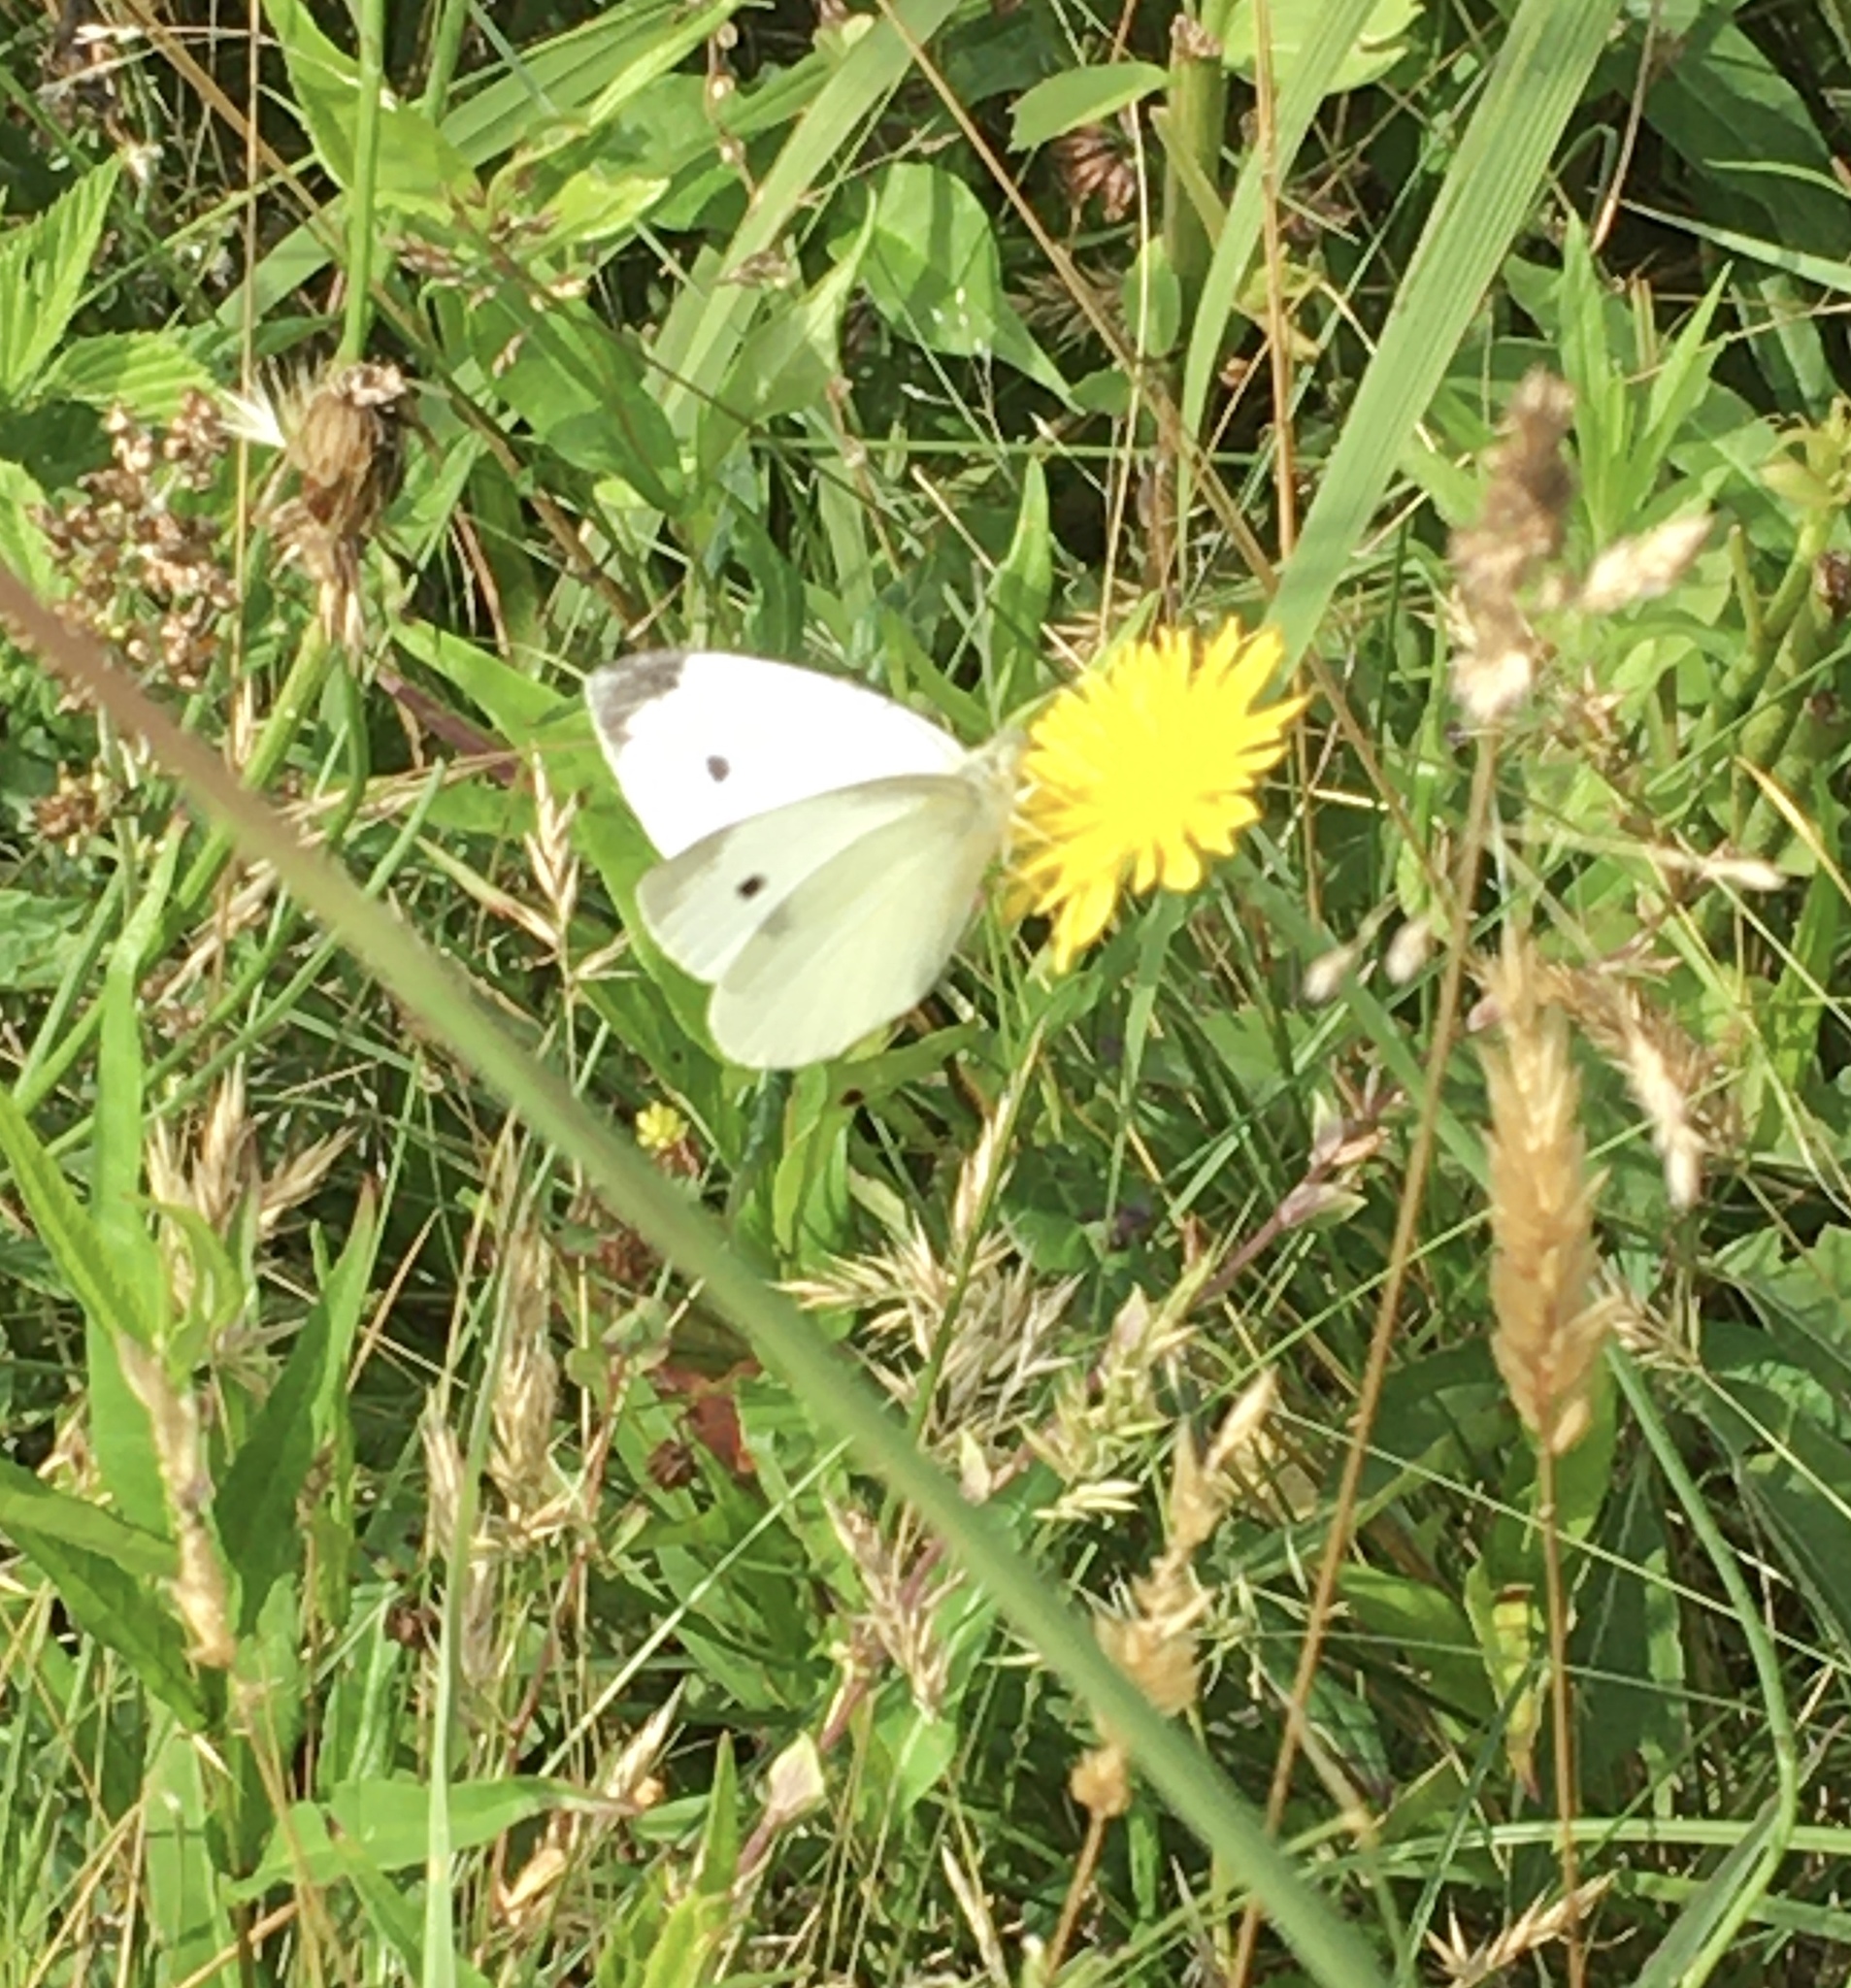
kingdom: Animalia
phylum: Arthropoda
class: Insecta
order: Lepidoptera
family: Pieridae
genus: Pieris
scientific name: Pieris rapae
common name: Small white
